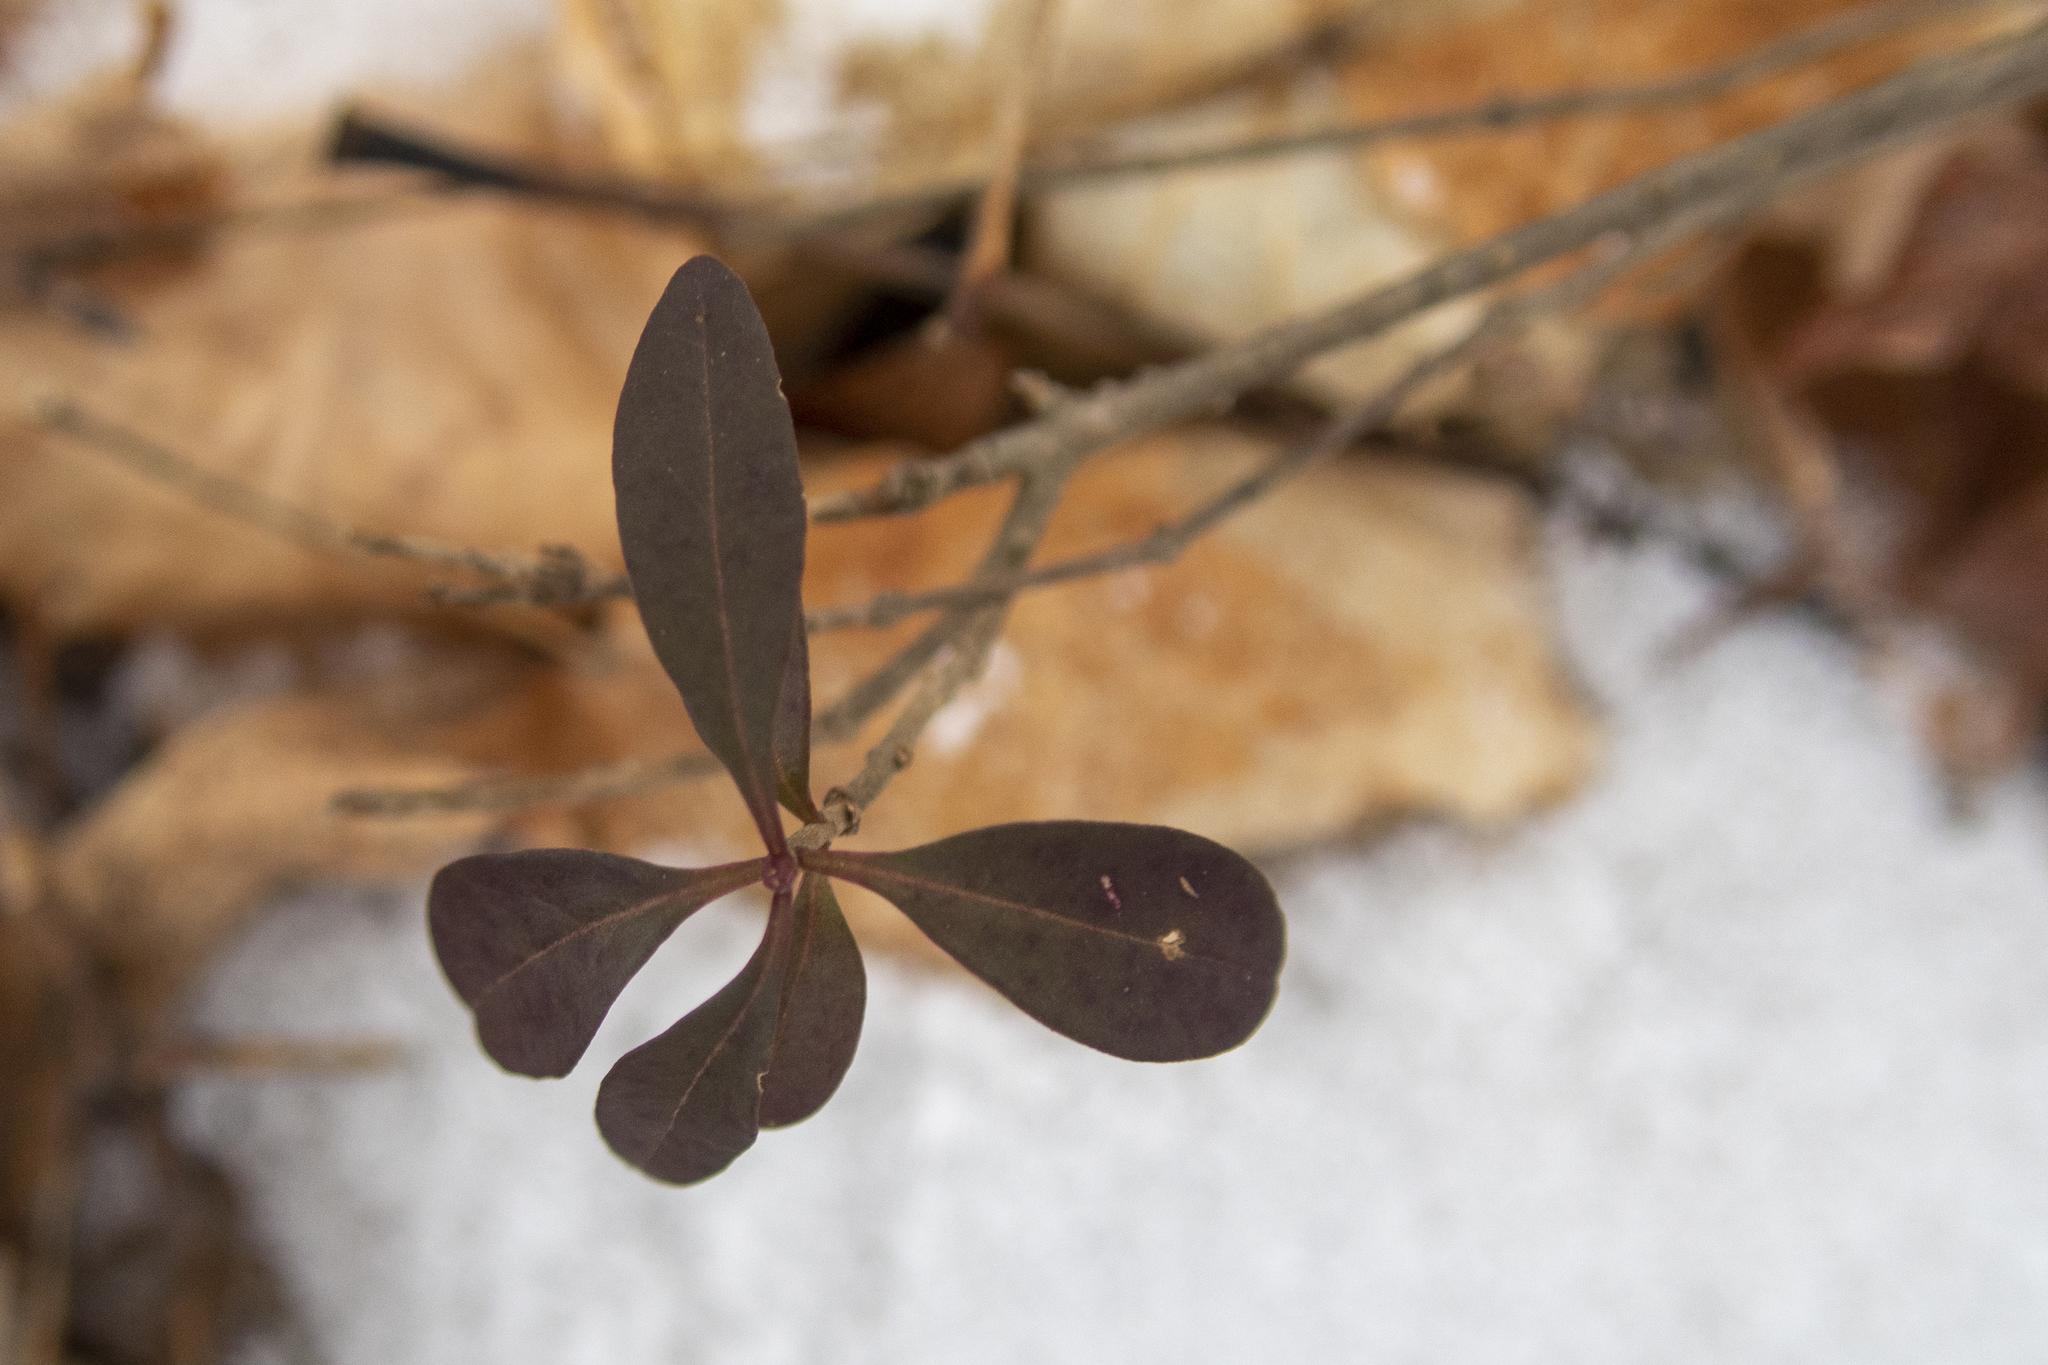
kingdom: Plantae
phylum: Tracheophyta
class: Magnoliopsida
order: Lamiales
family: Oleaceae
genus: Ligustrum
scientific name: Ligustrum obtusifolium
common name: Border privet
